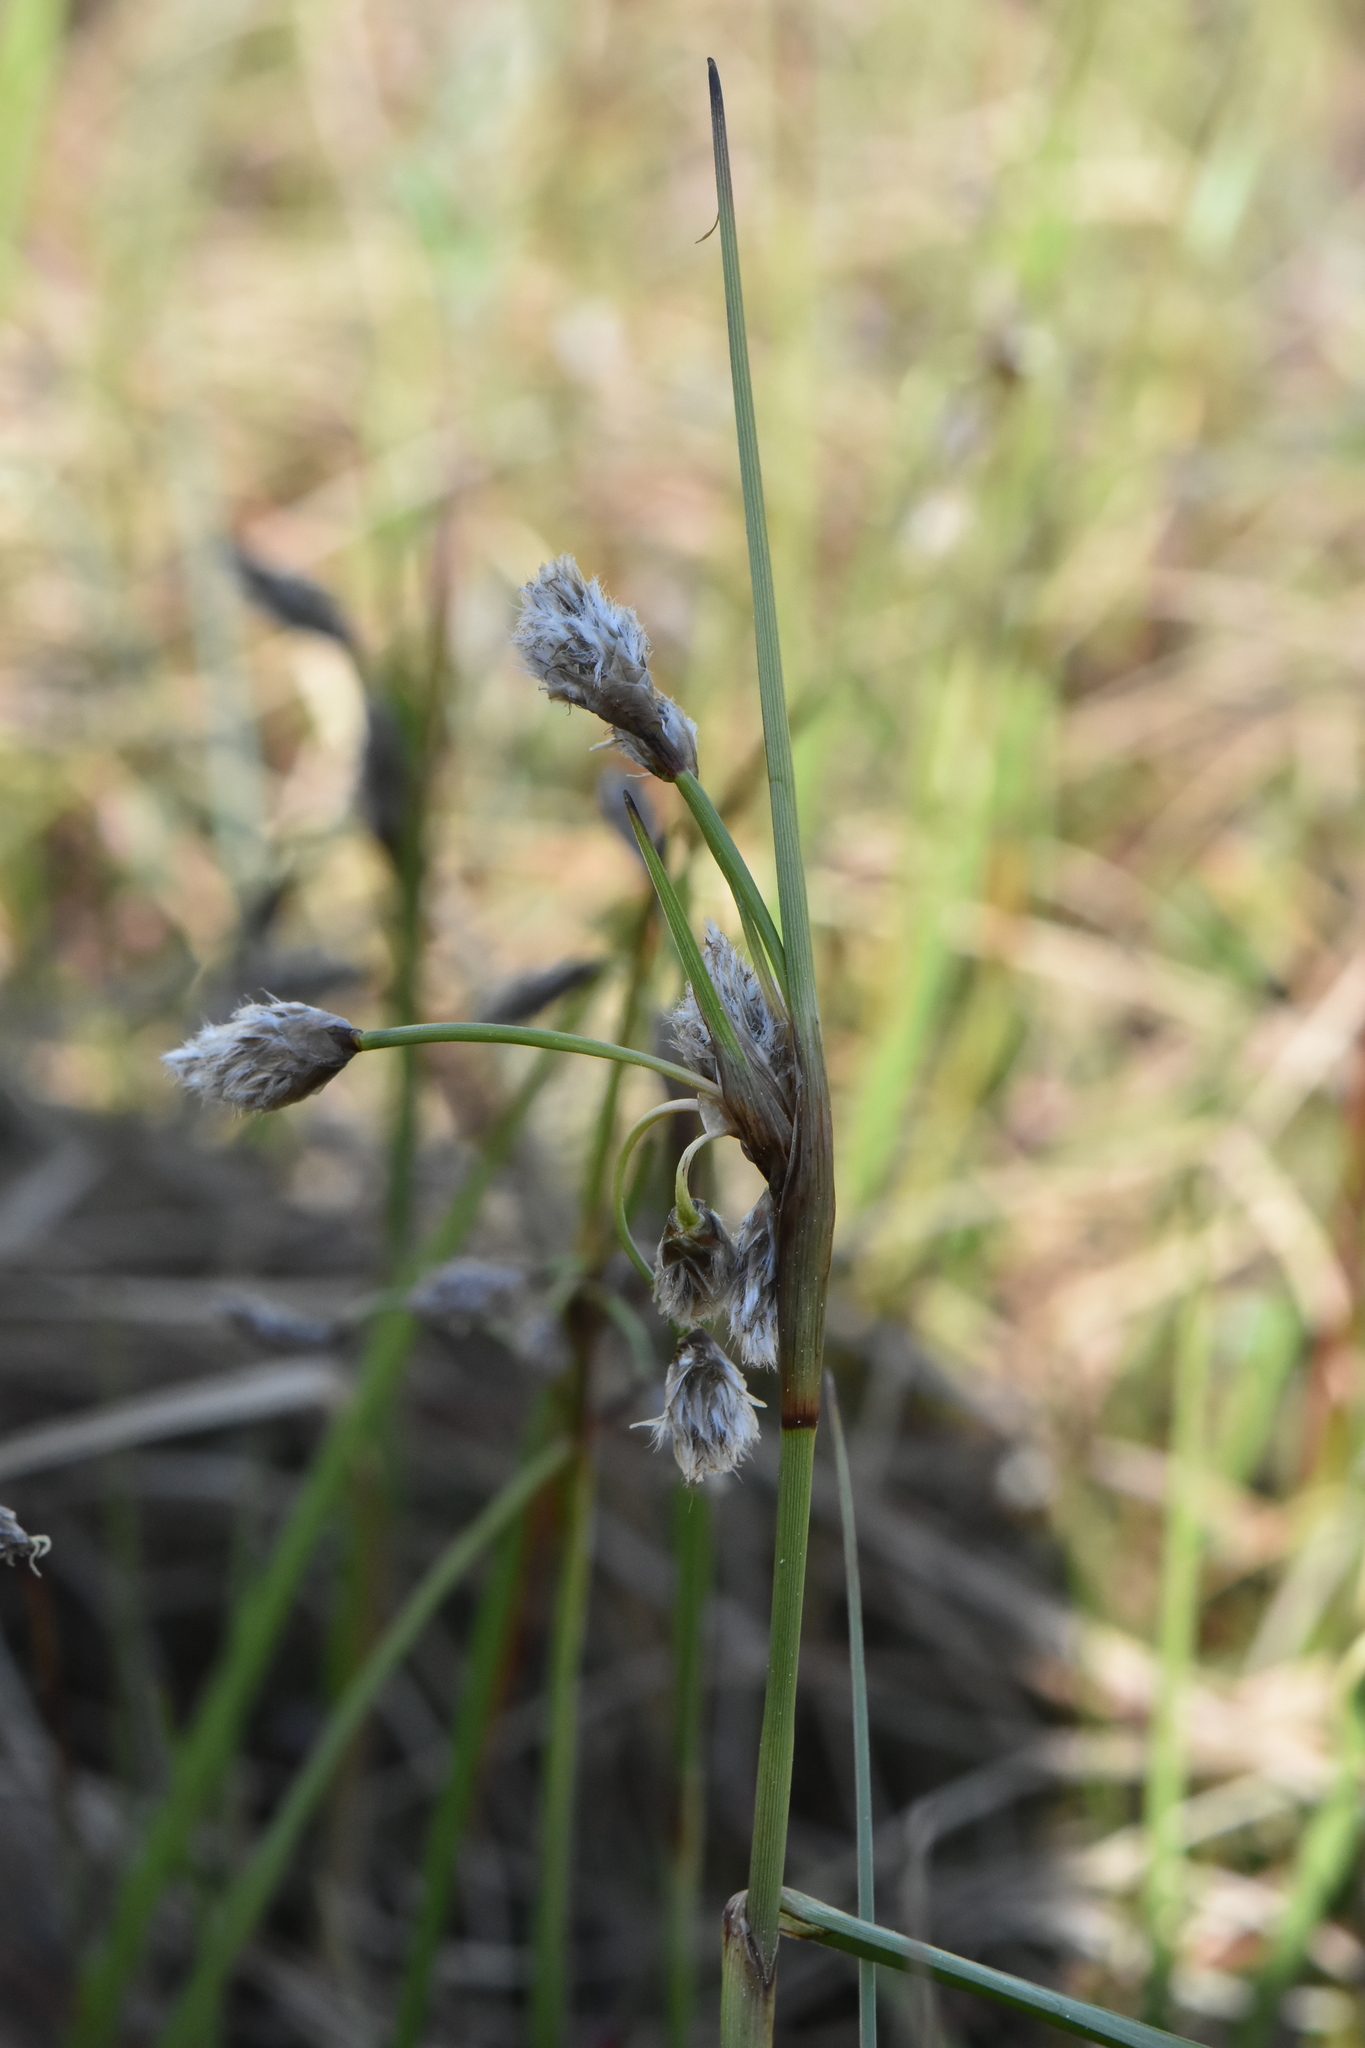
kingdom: Plantae
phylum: Tracheophyta
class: Liliopsida
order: Poales
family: Cyperaceae
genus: Eriophorum
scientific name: Eriophorum angustifolium
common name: Common cottongrass
